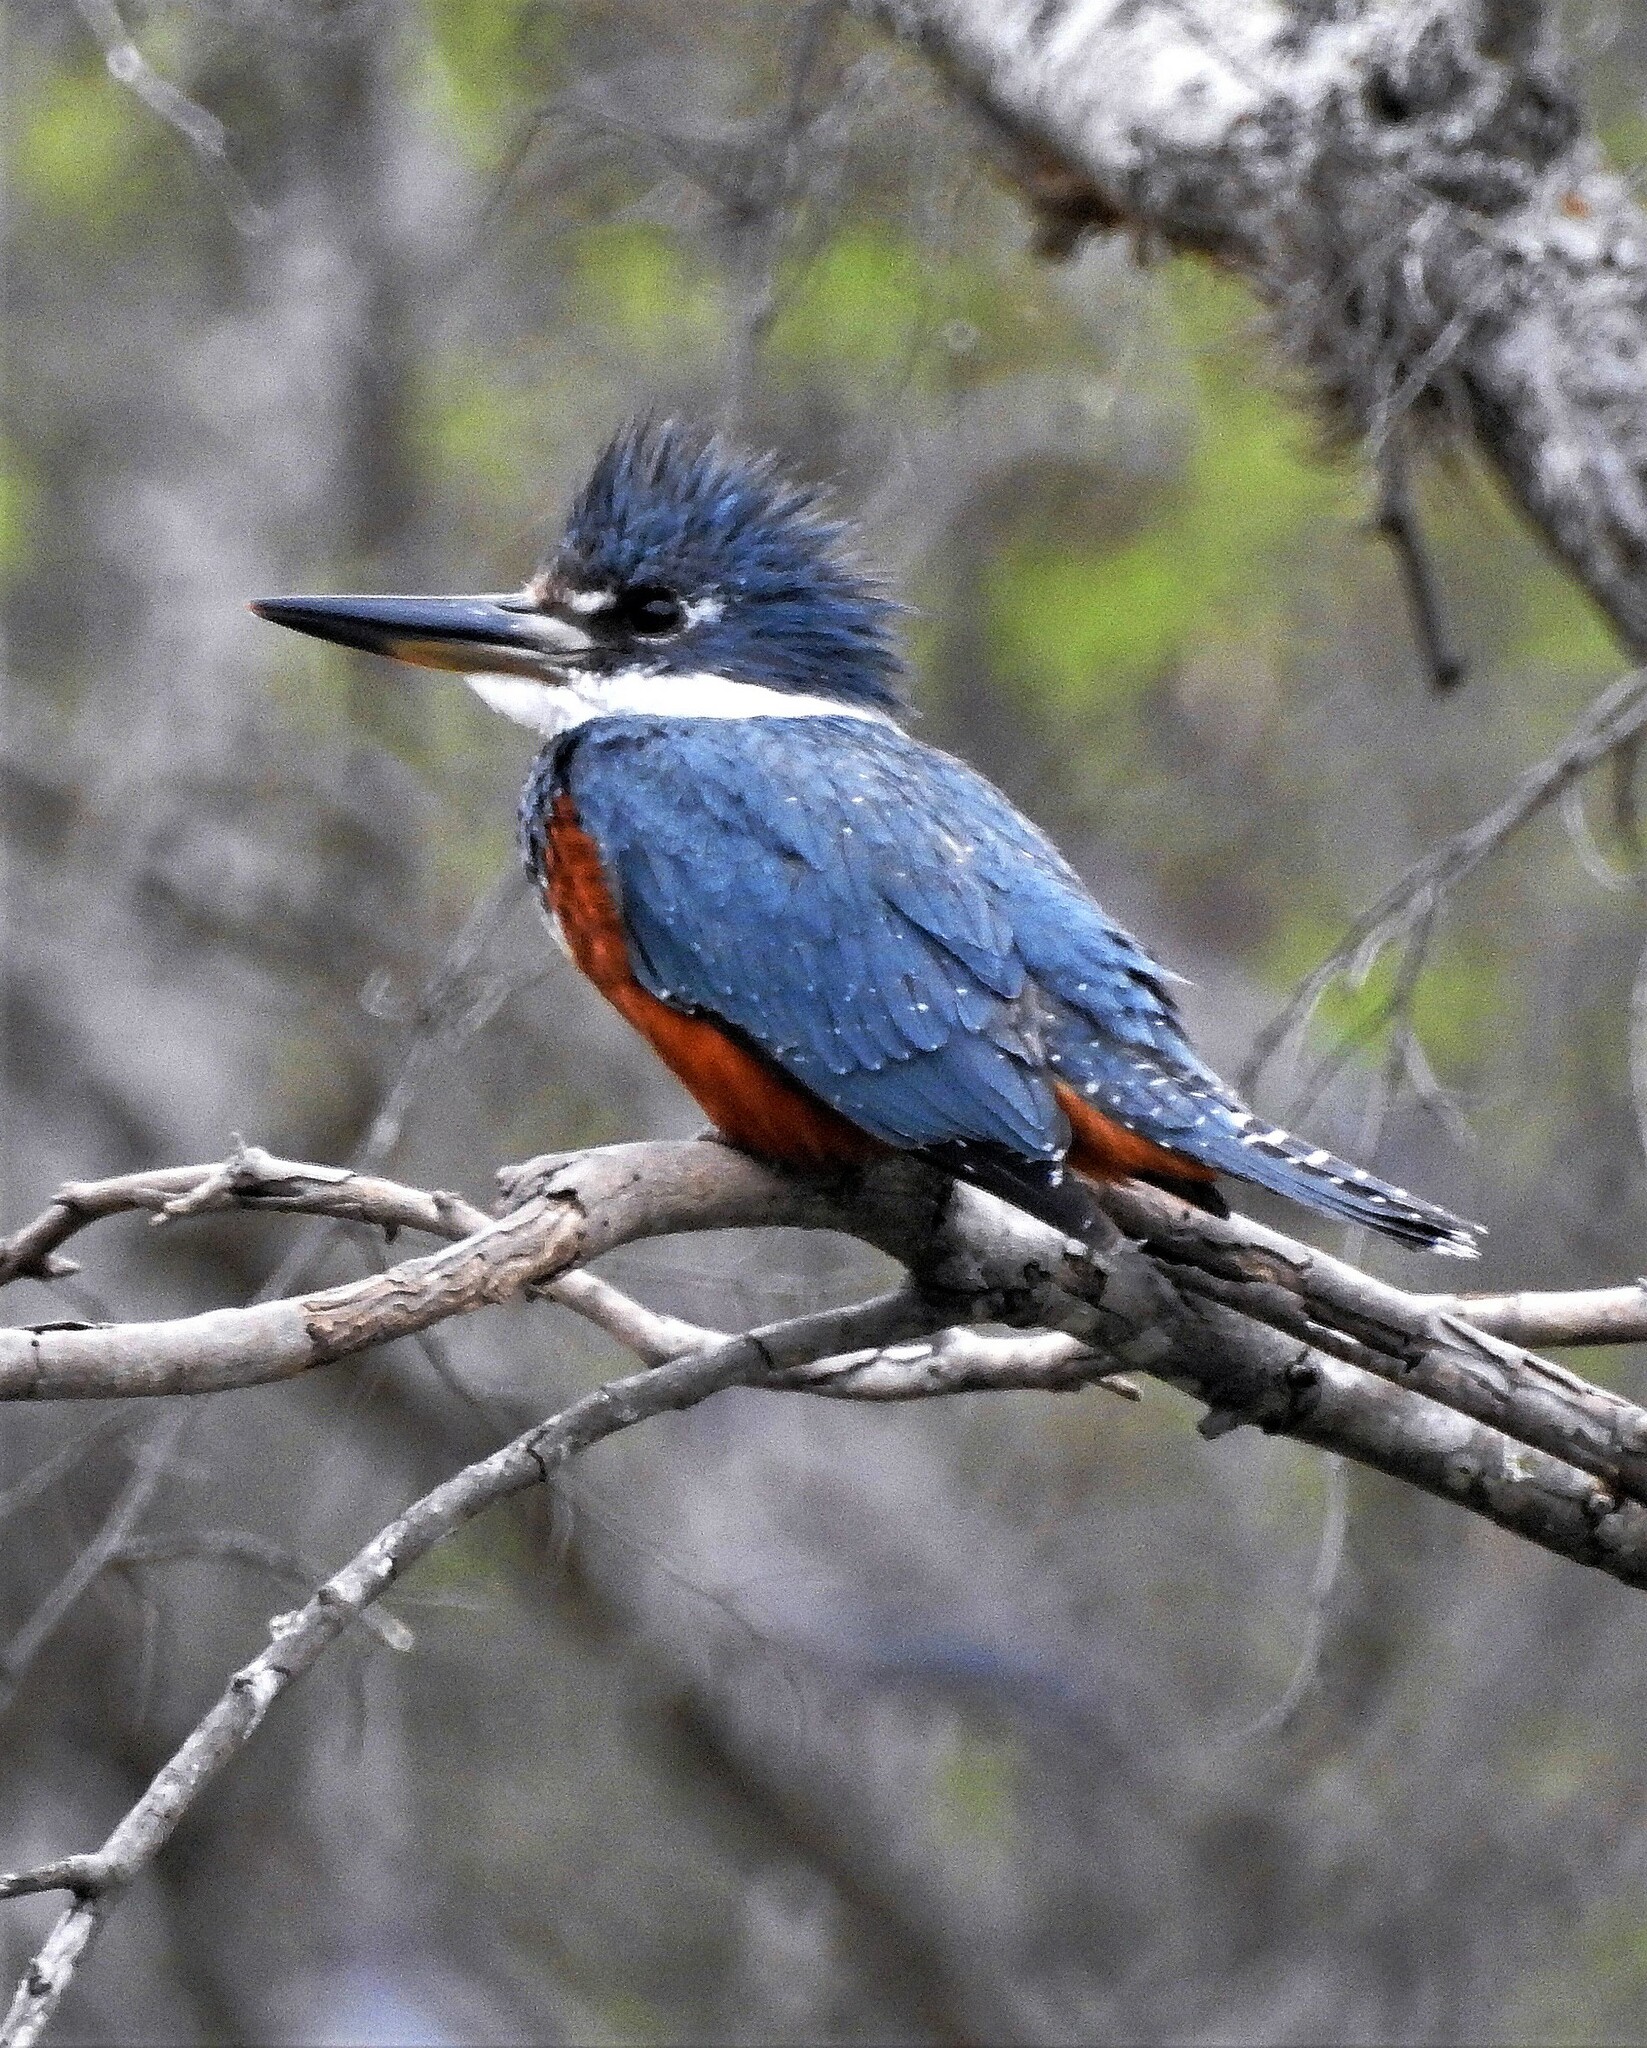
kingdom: Animalia
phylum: Chordata
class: Aves
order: Coraciiformes
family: Alcedinidae
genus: Megaceryle
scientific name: Megaceryle torquata
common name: Ringed kingfisher
